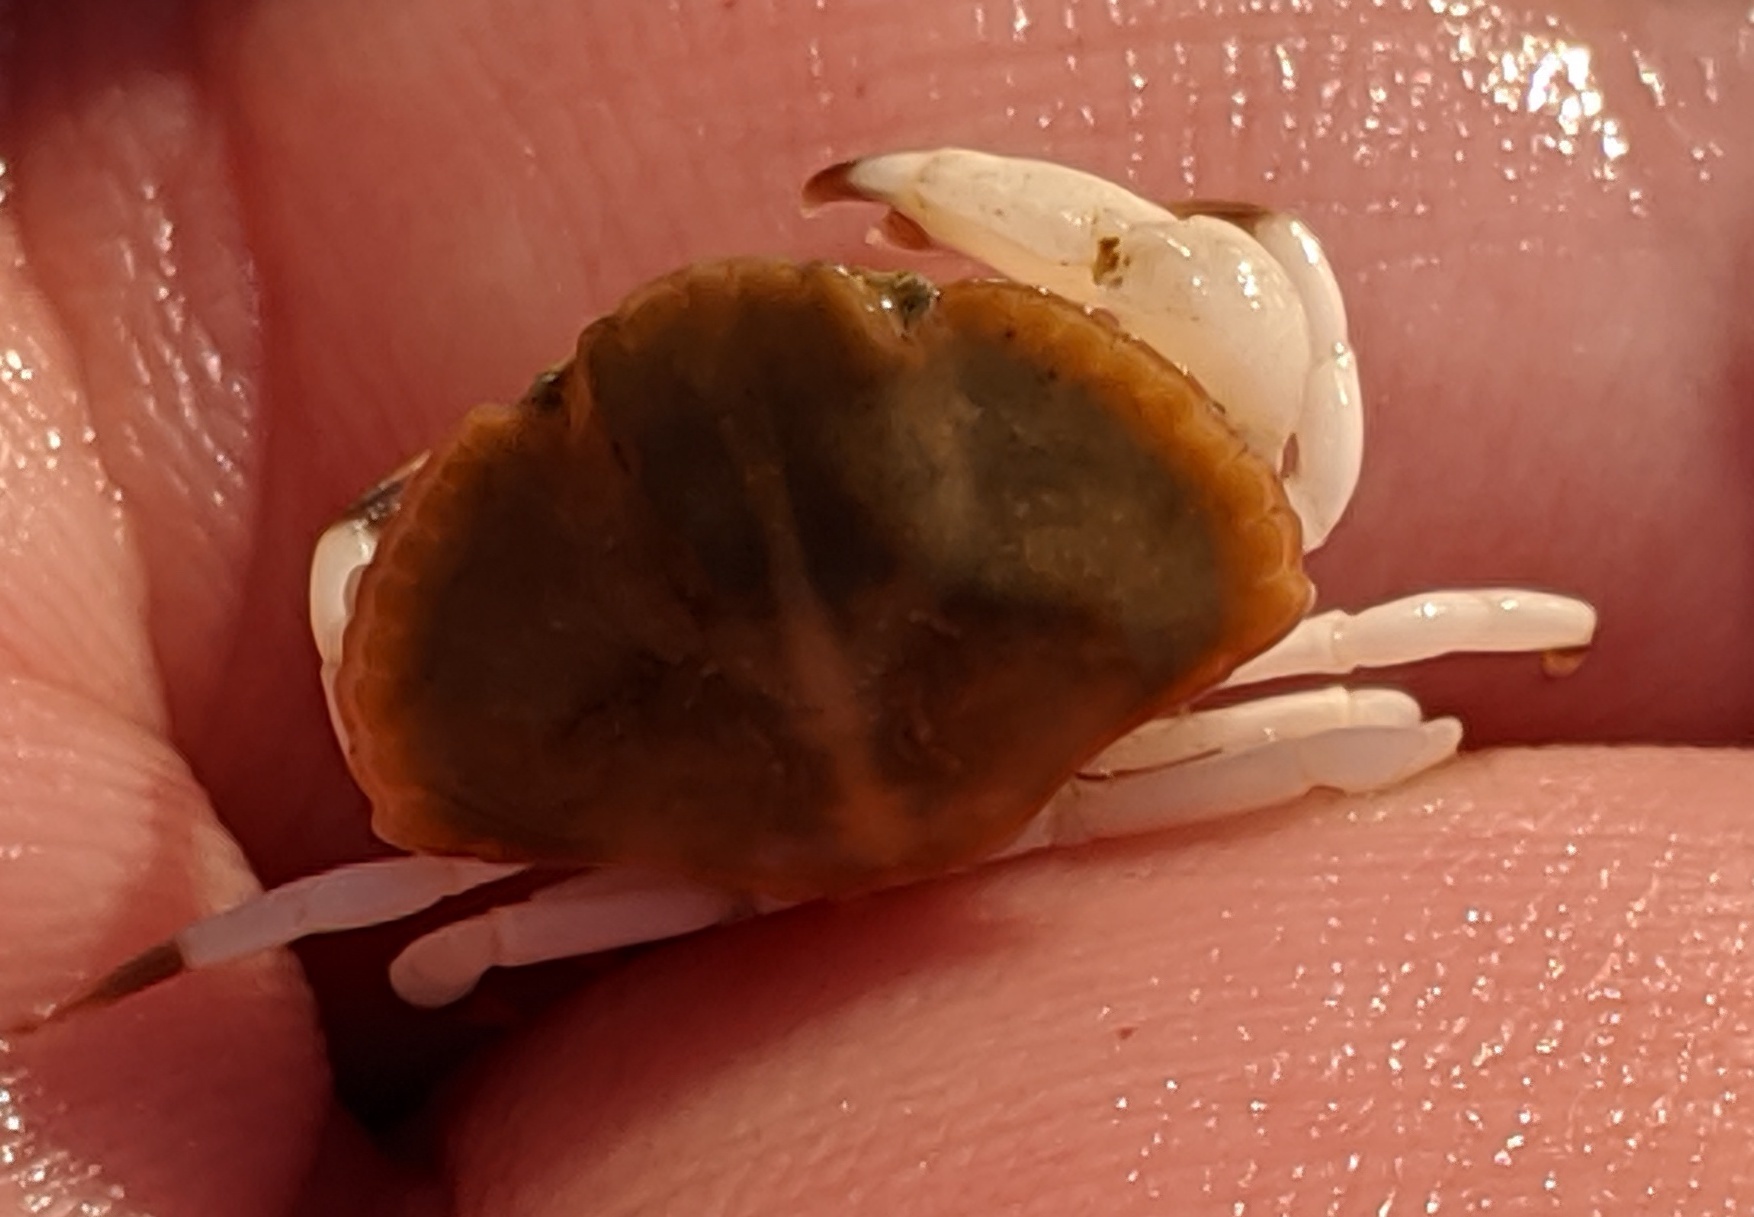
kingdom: Animalia
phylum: Arthropoda
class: Malacostraca
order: Decapoda
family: Cancridae
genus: Cancer
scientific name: Cancer productus
